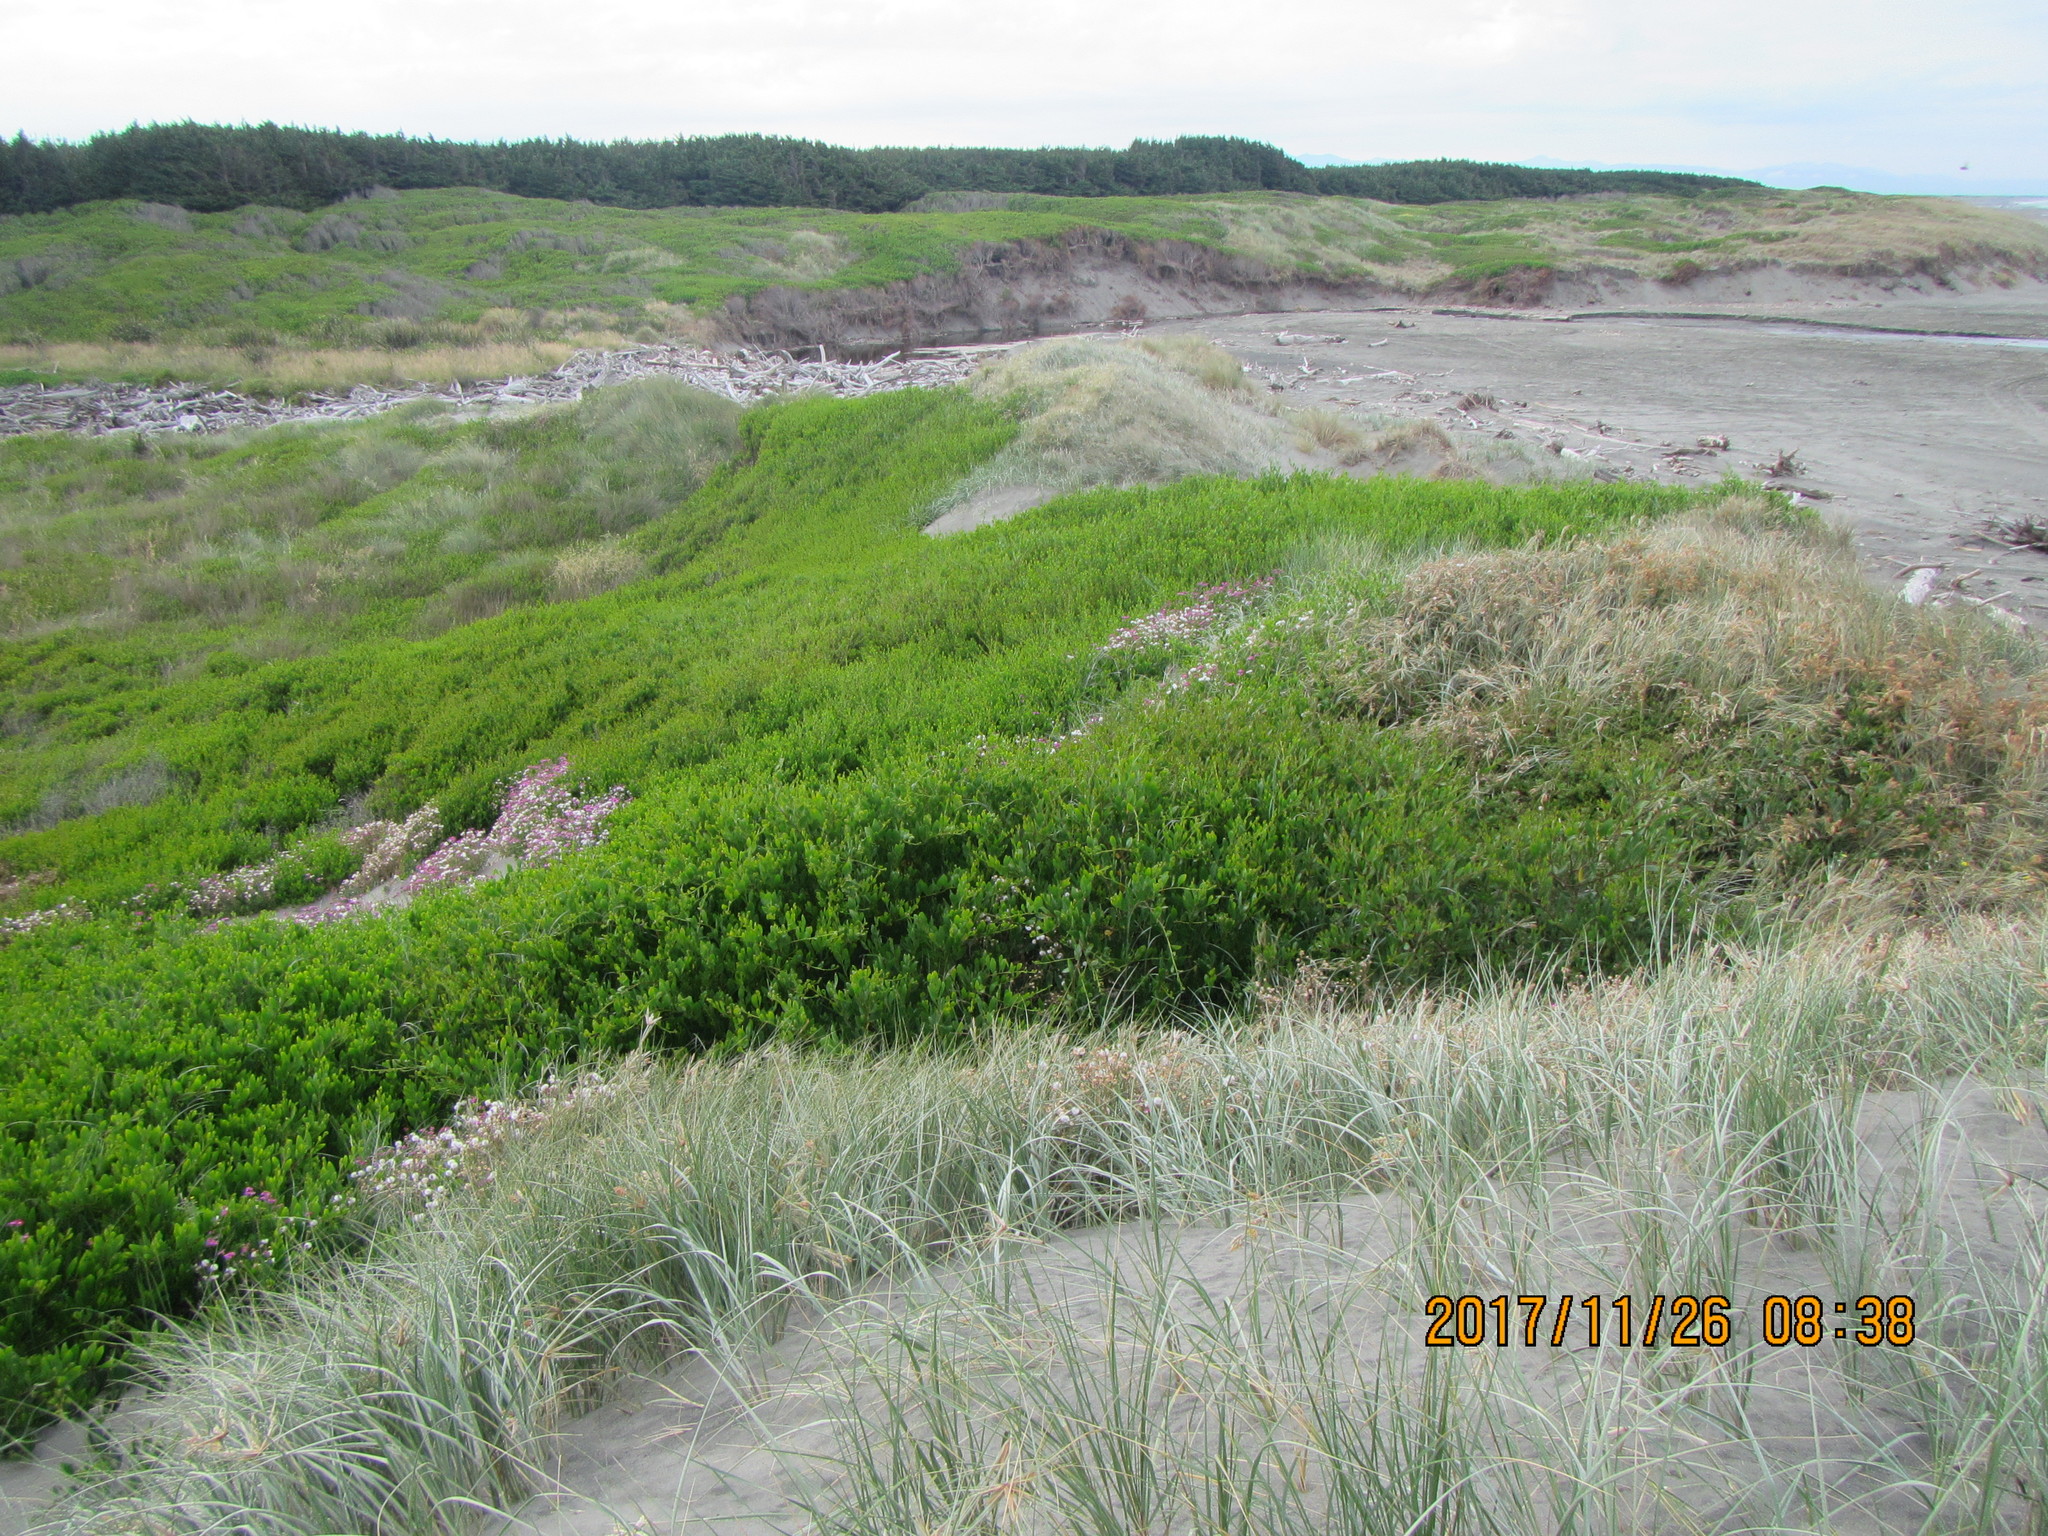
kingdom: Plantae
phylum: Tracheophyta
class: Magnoliopsida
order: Fabales
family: Fabaceae
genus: Acacia
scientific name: Acacia longifolia
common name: Sydney golden wattle
